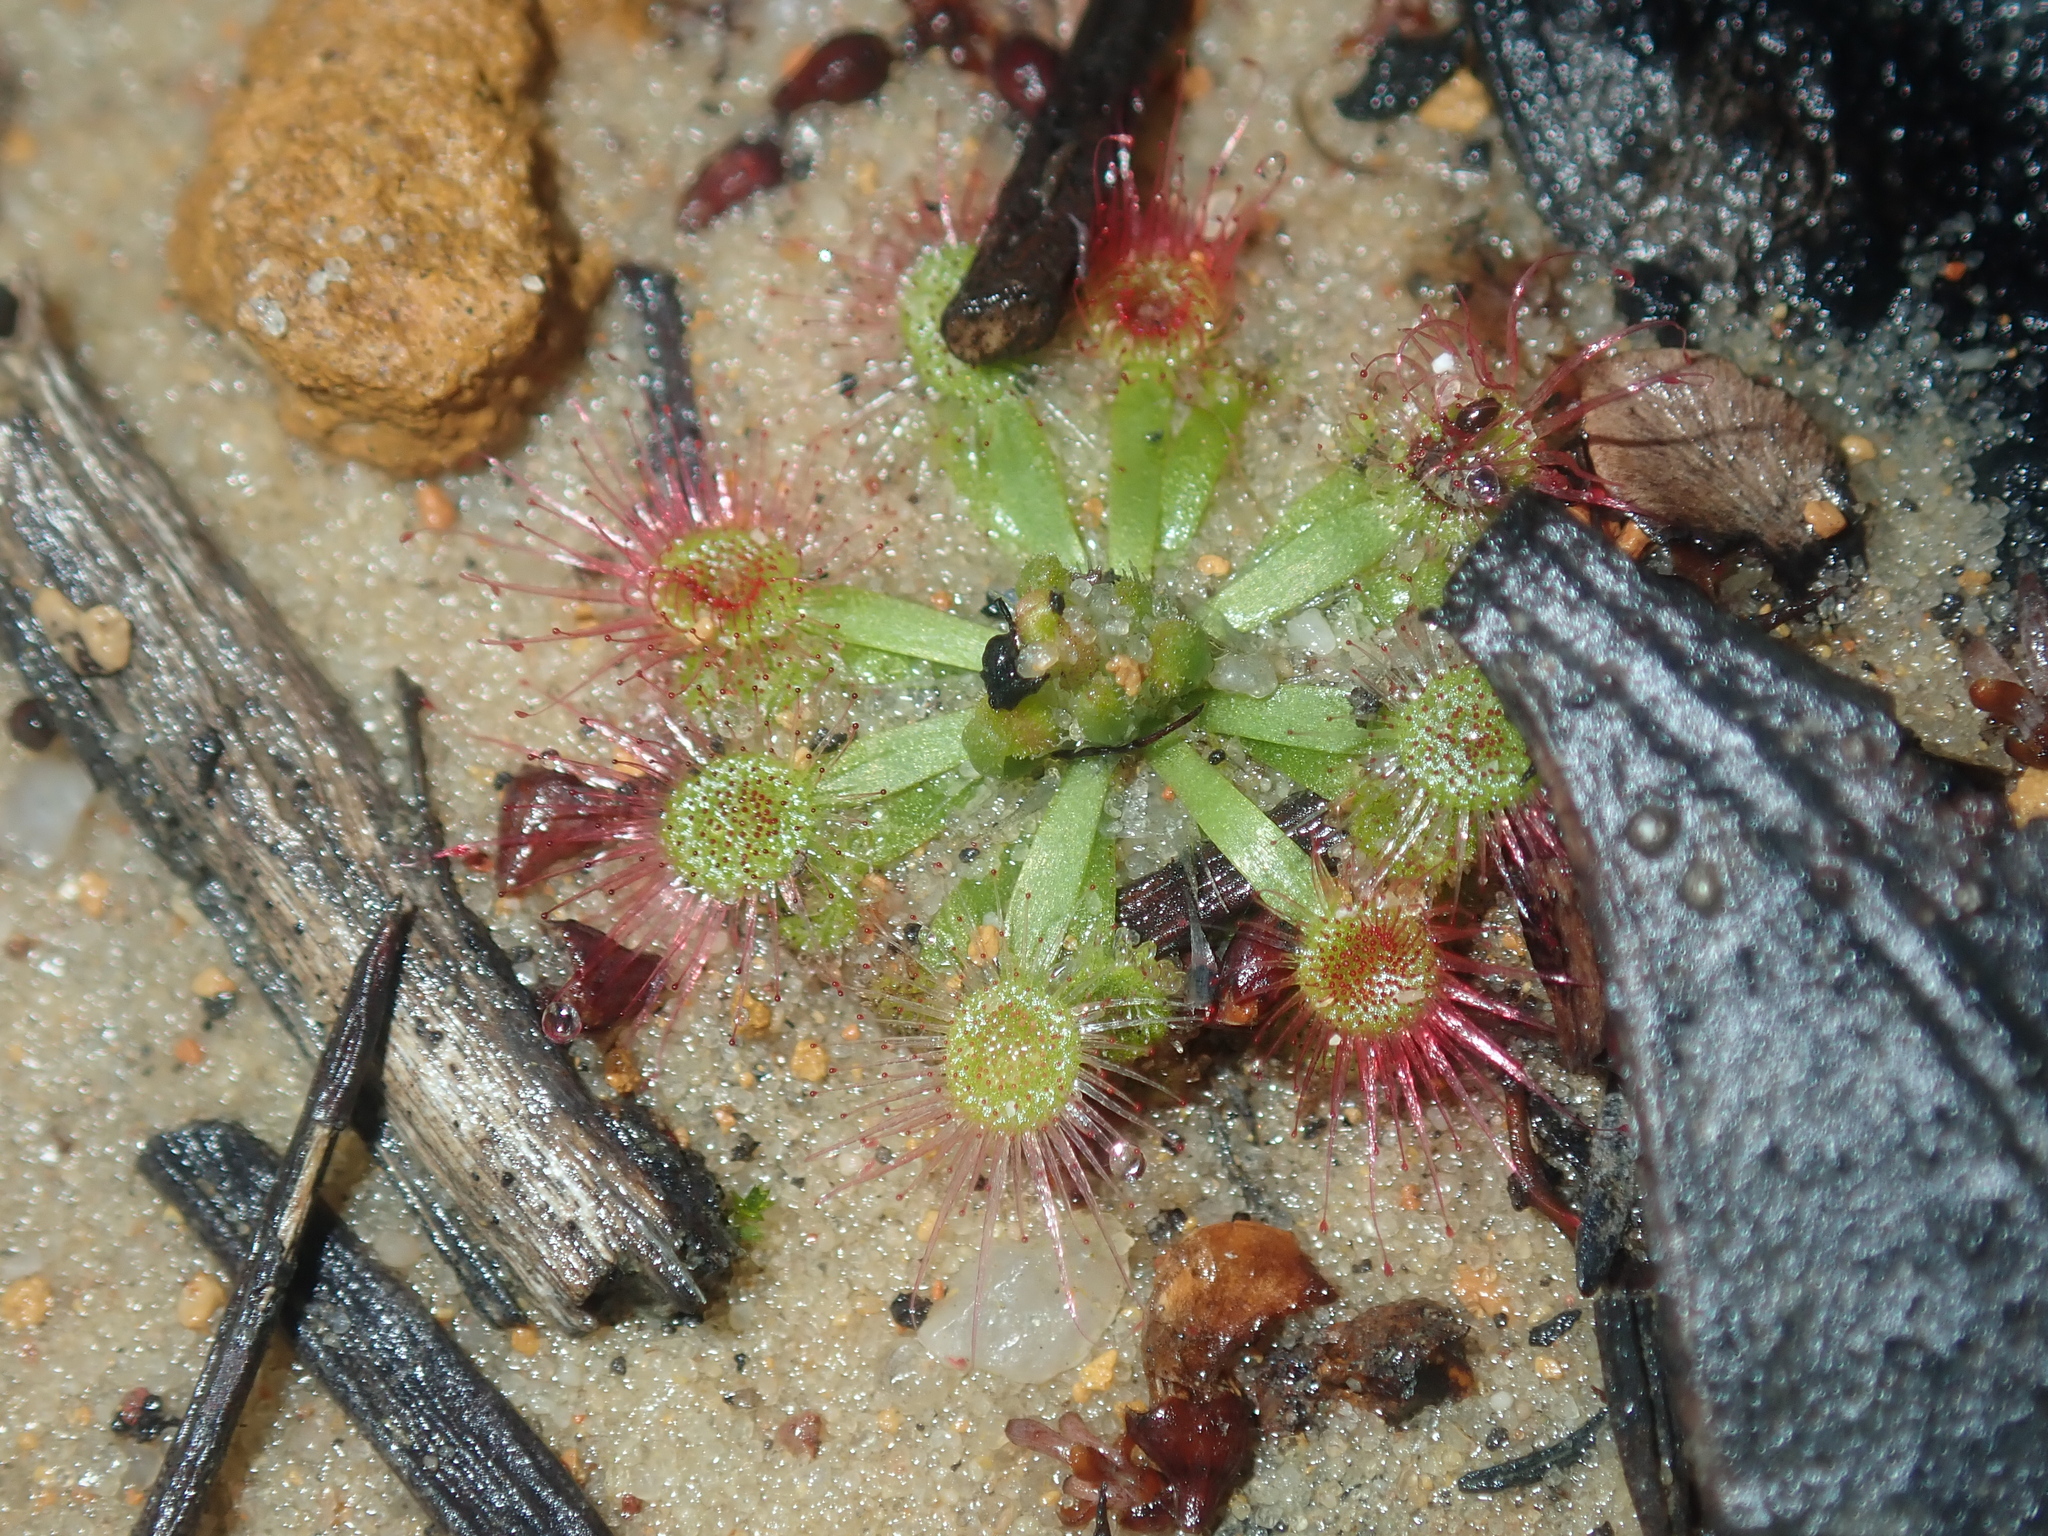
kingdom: Plantae
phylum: Tracheophyta
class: Magnoliopsida
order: Caryophyllales
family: Droseraceae
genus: Drosera
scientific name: Drosera spilos
